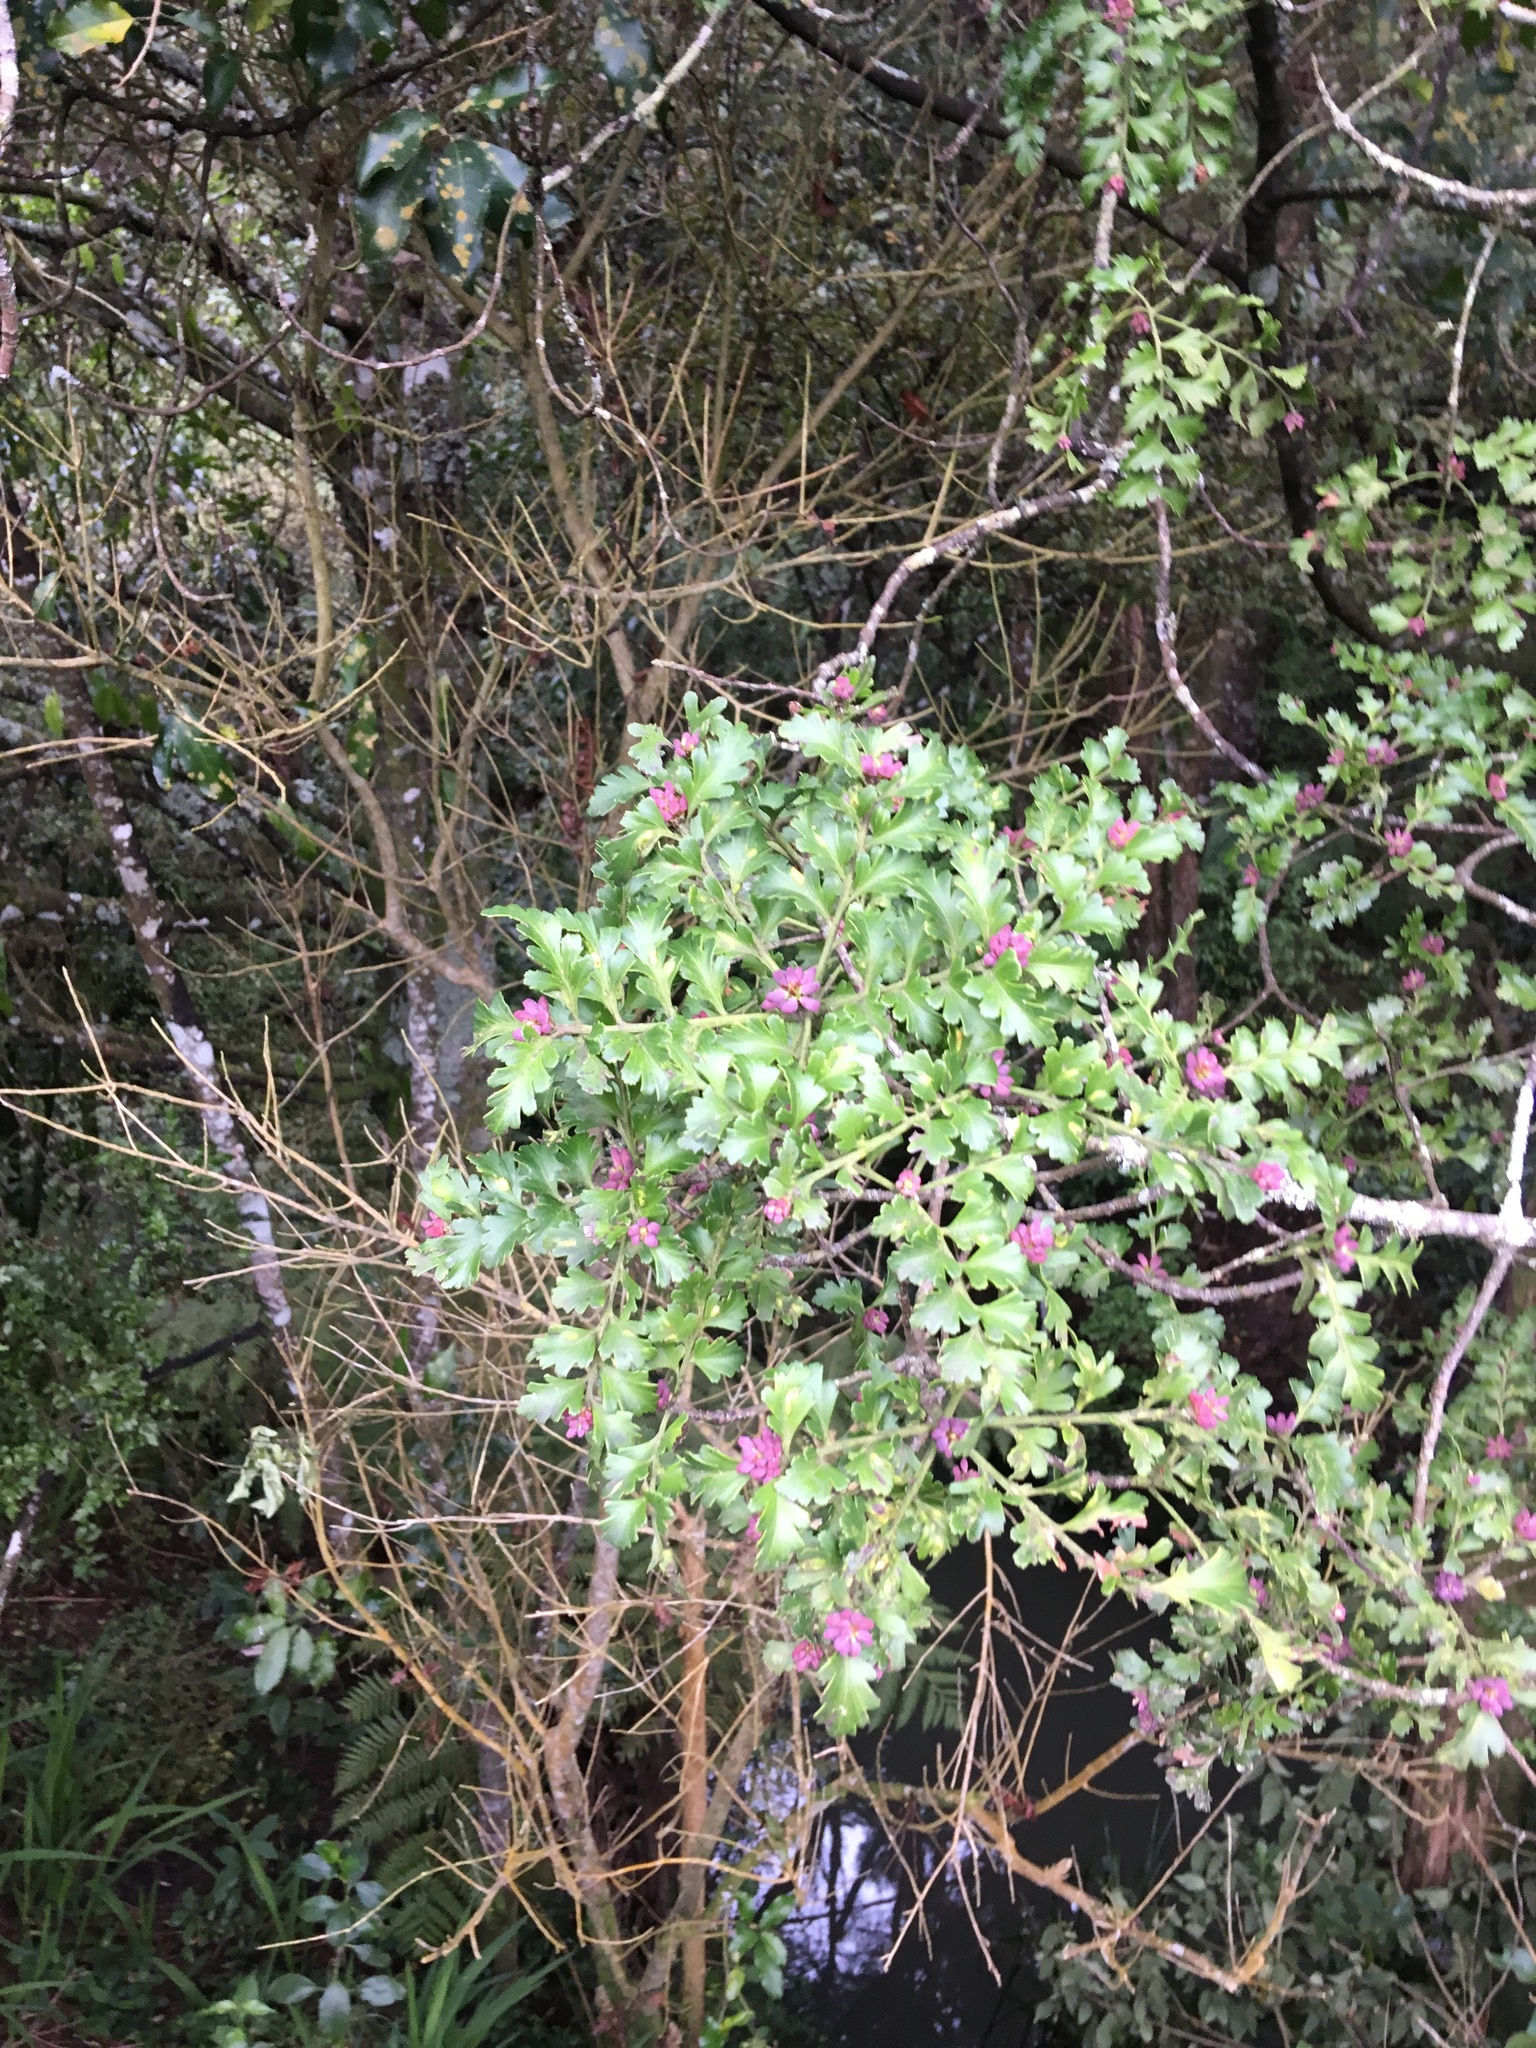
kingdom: Plantae
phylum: Tracheophyta
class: Pinopsida
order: Pinales
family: Phyllocladaceae
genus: Phyllocladus
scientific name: Phyllocladus trichomanoides
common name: Celery pine
